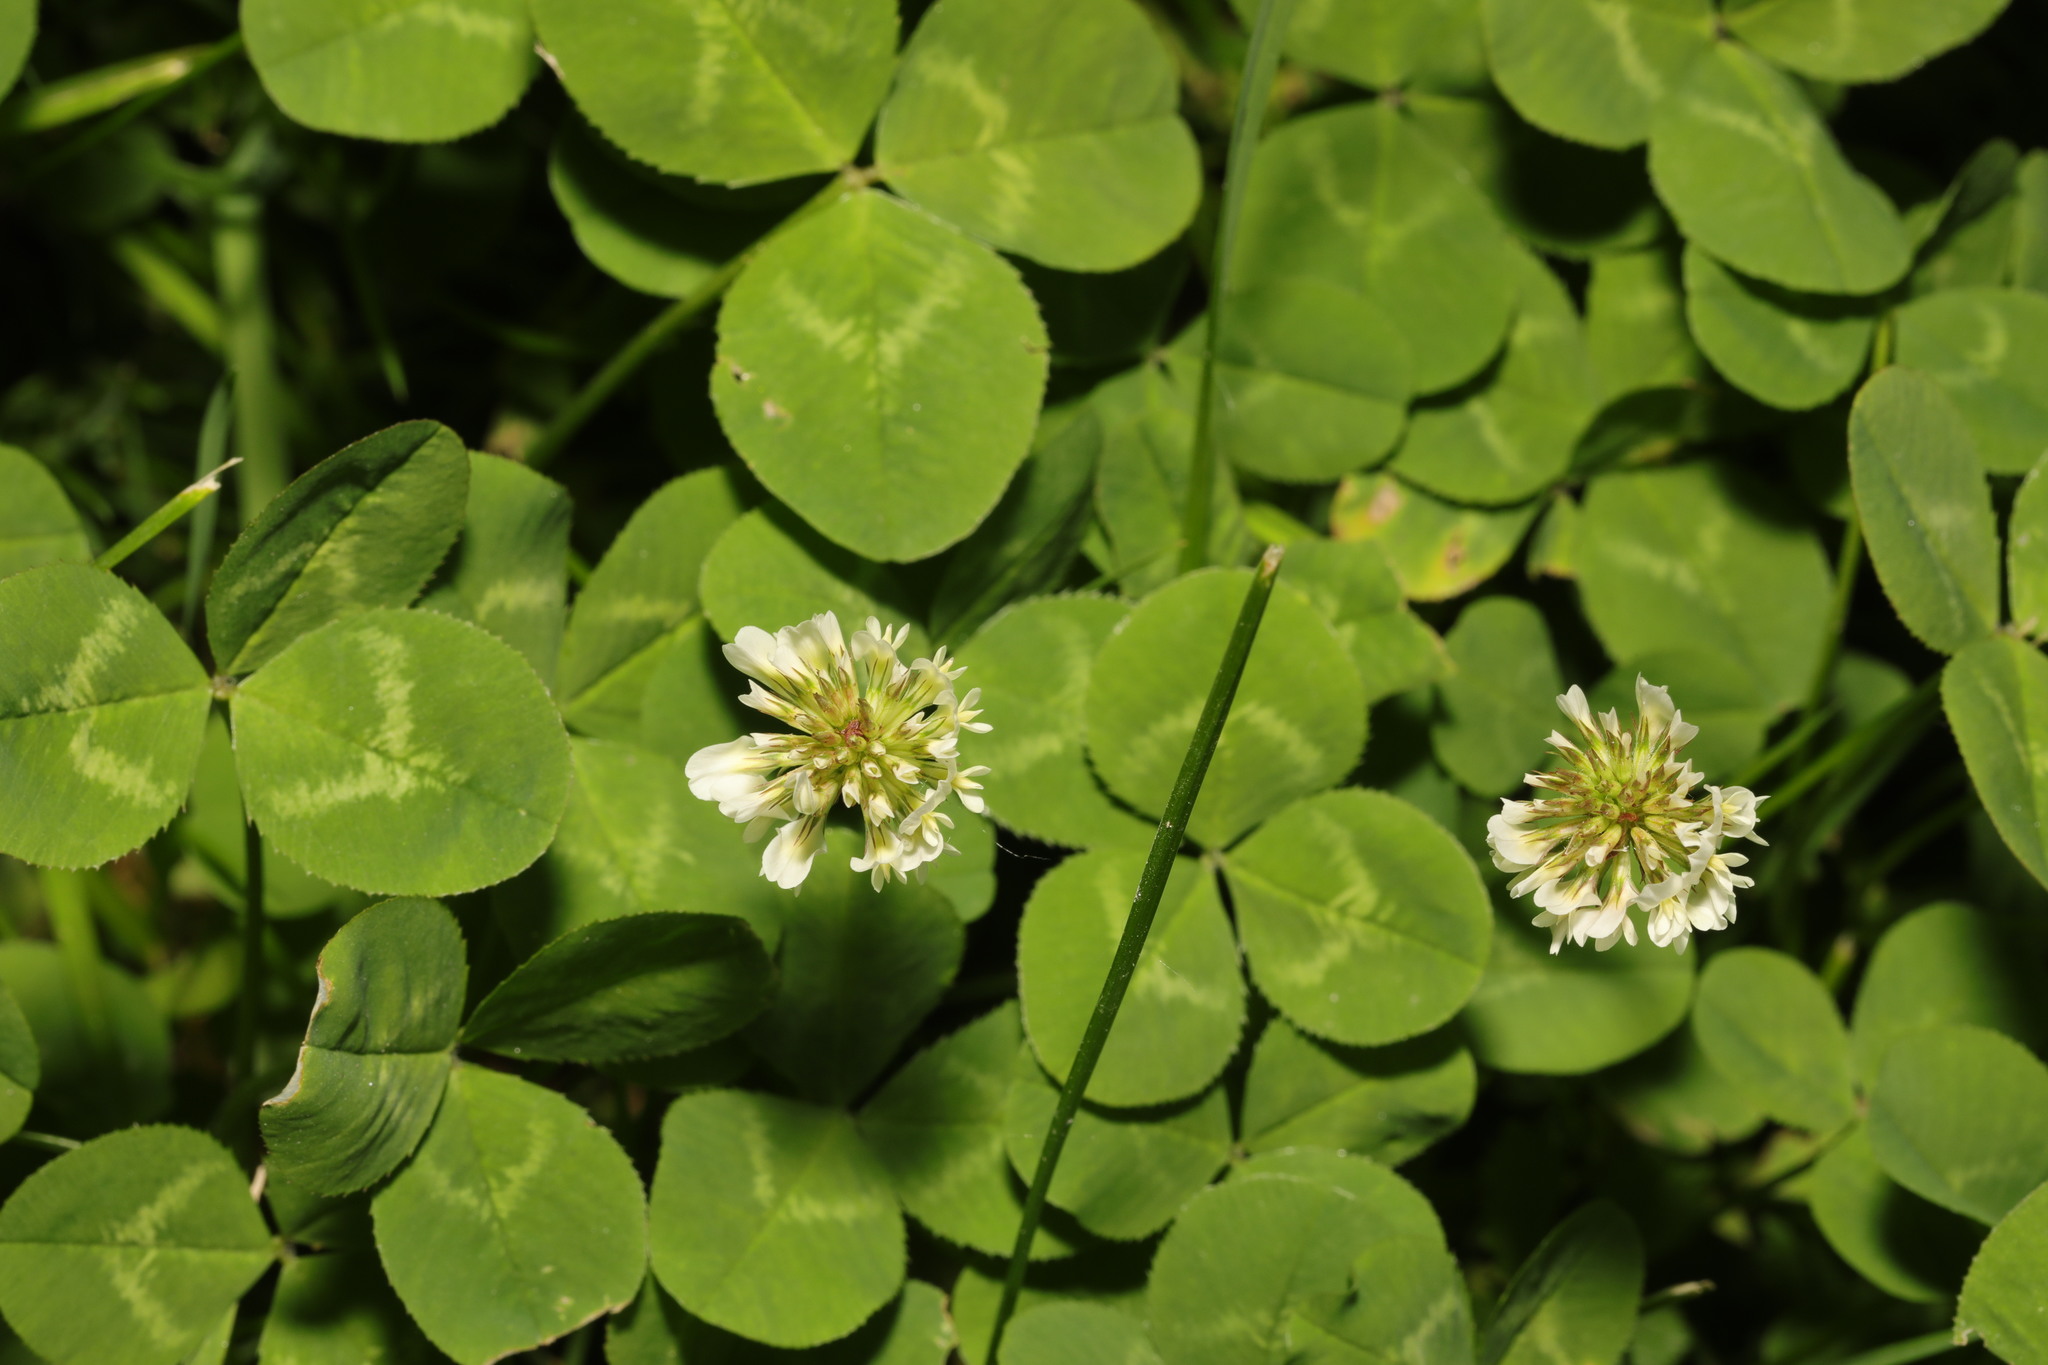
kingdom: Plantae
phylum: Tracheophyta
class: Magnoliopsida
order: Fabales
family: Fabaceae
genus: Trifolium
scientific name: Trifolium repens
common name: White clover
